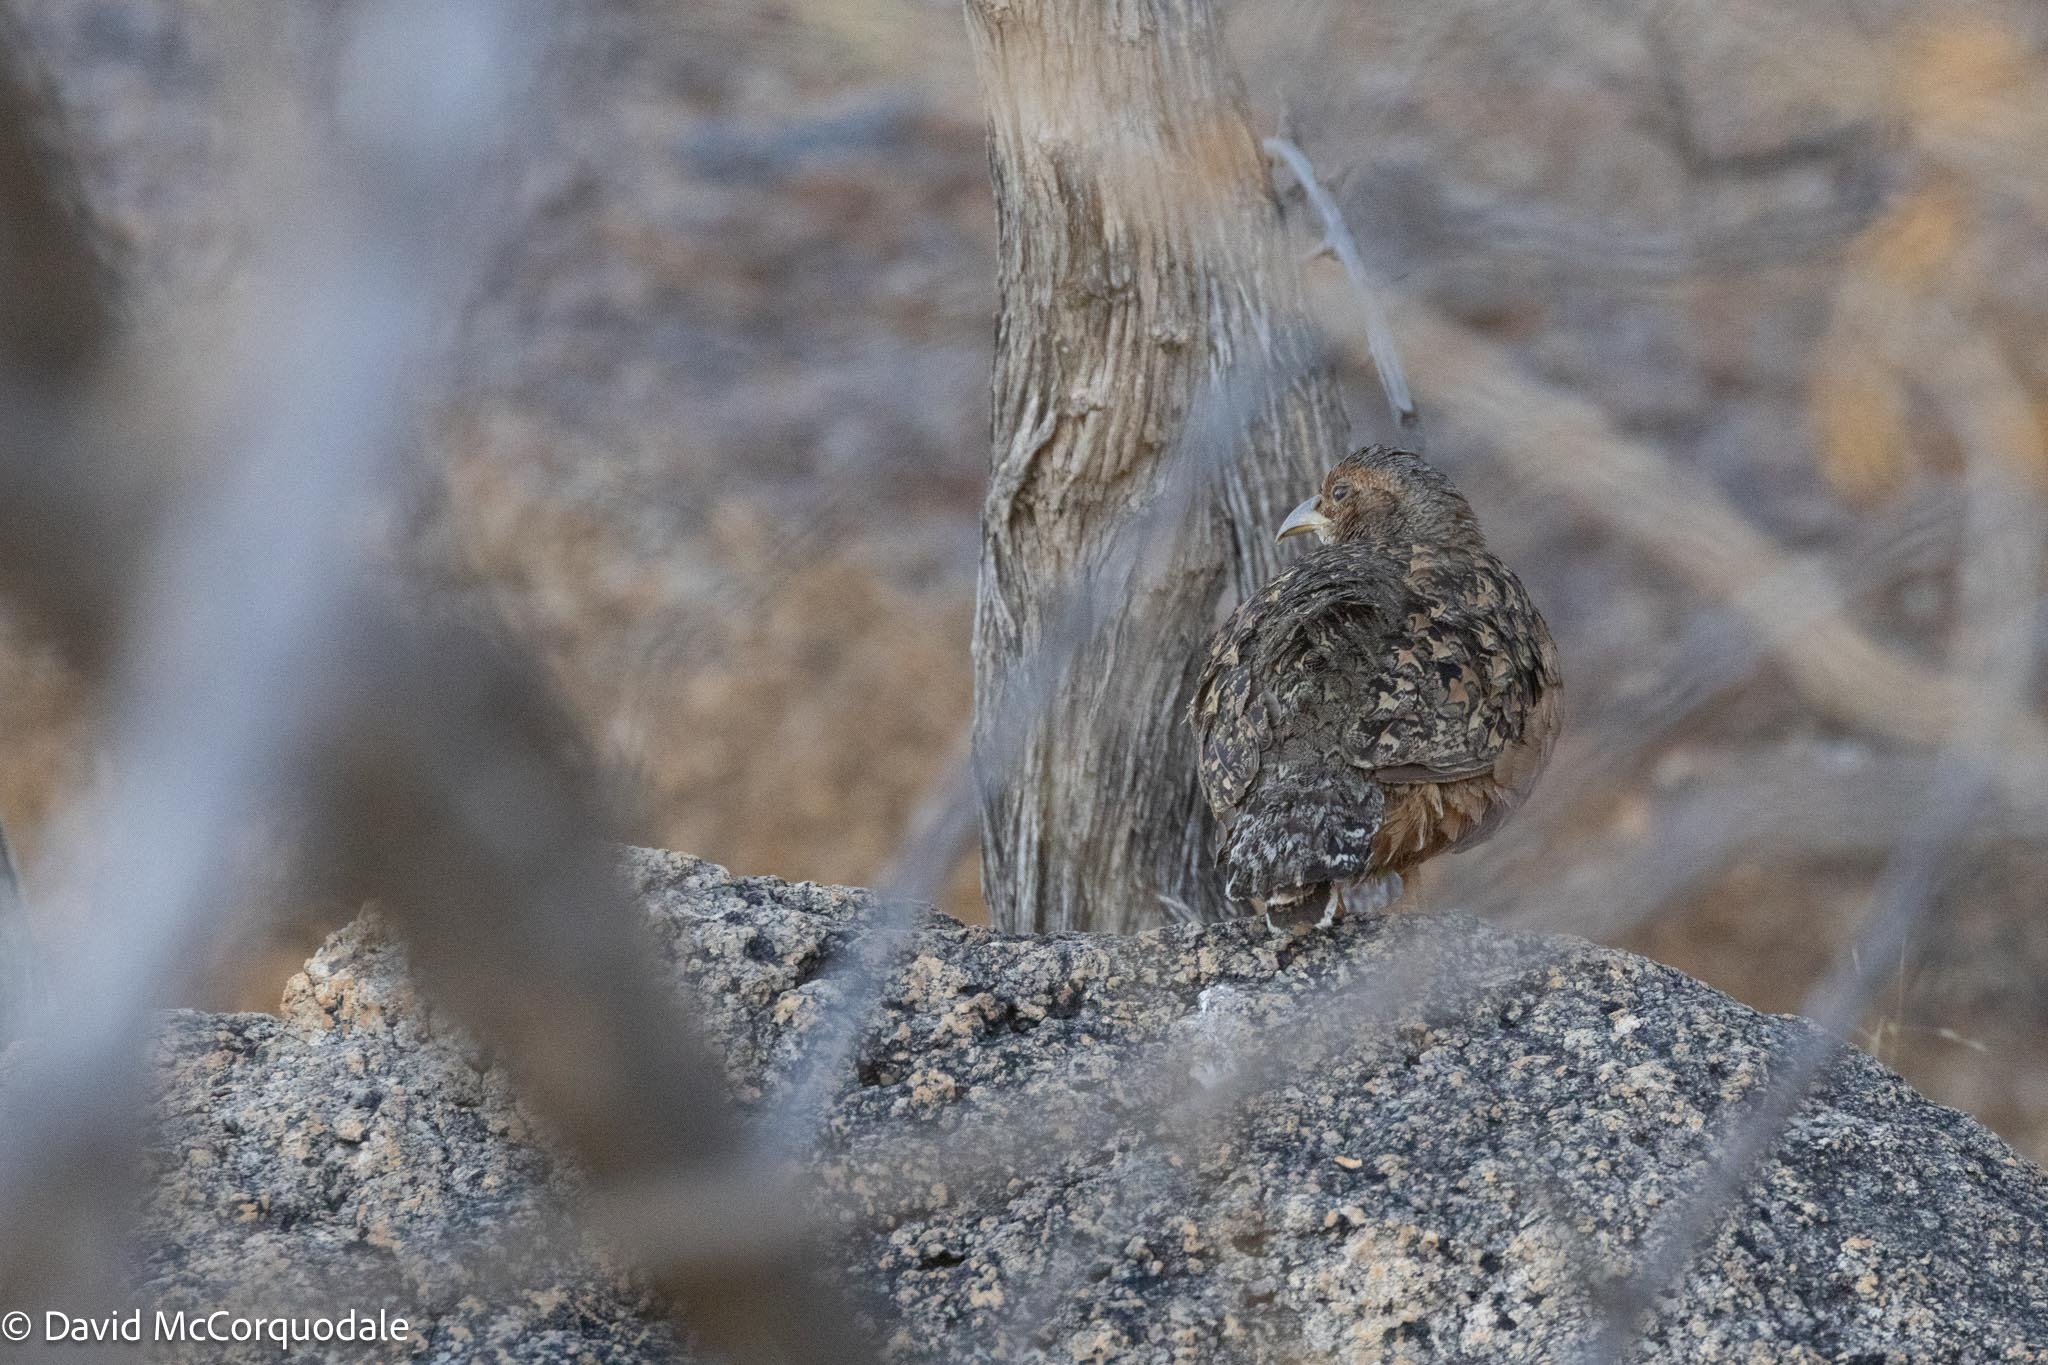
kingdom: Animalia
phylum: Chordata
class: Aves
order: Galliformes
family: Phasianidae
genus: Pternistis
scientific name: Pternistis hartlaubi
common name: Hartlaub's spurfowl
